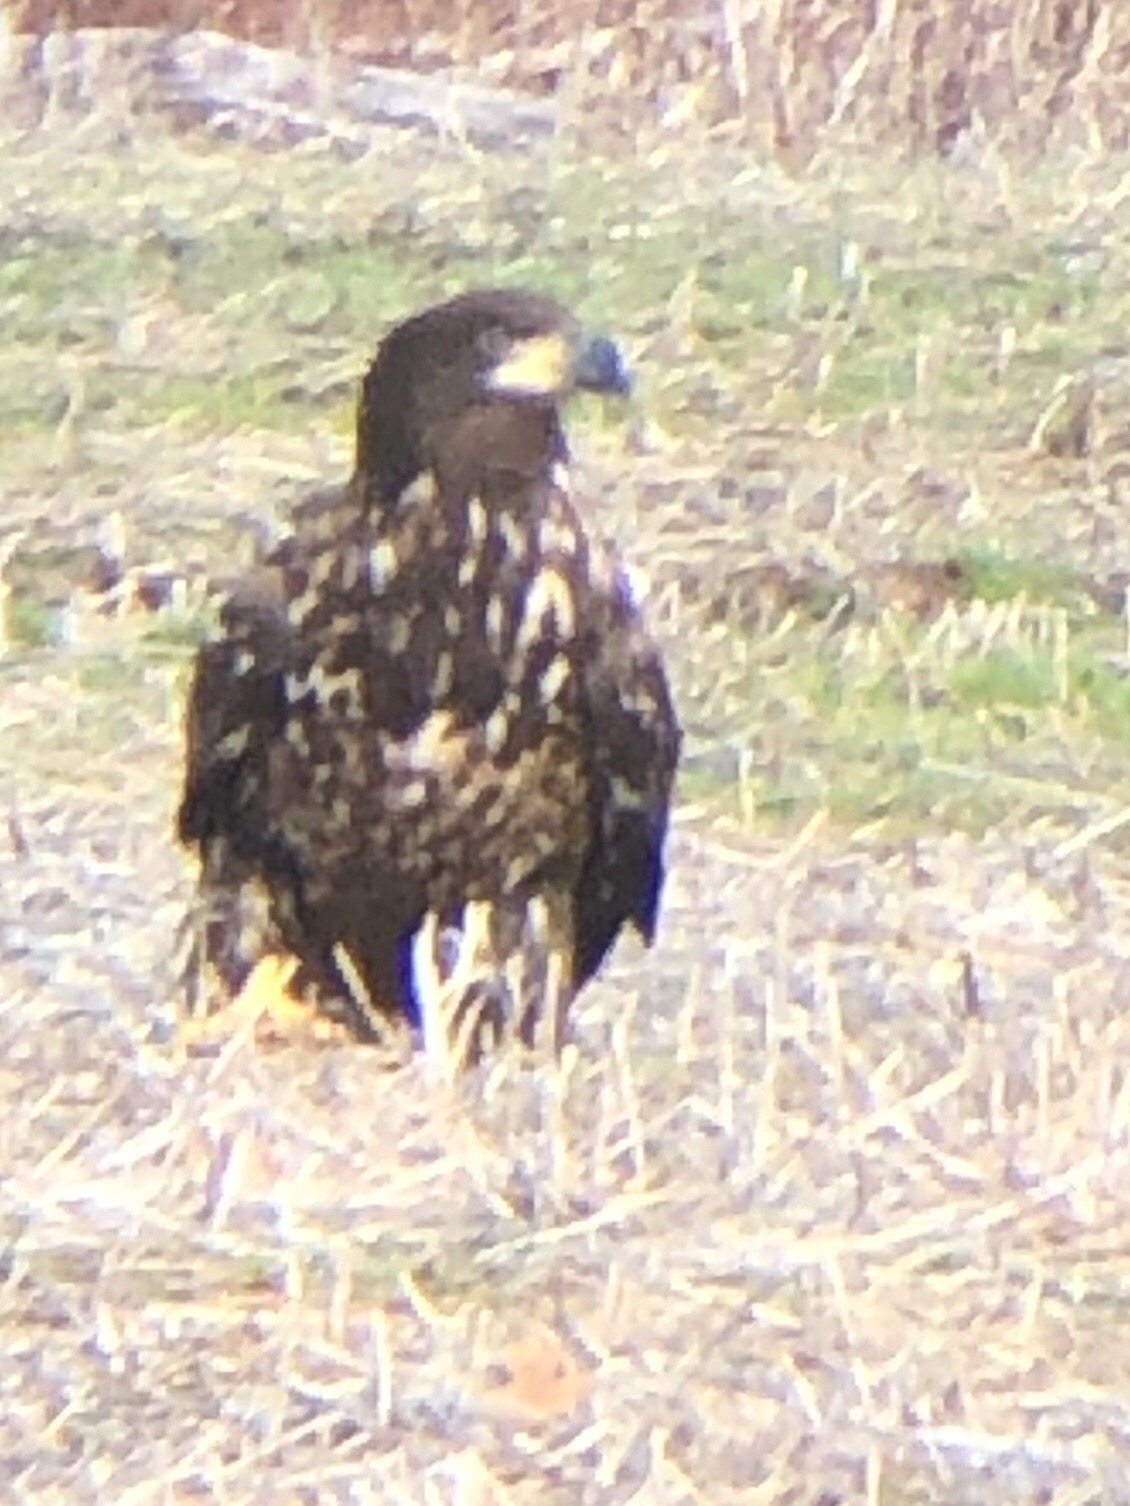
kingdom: Animalia
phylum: Chordata
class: Aves
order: Accipitriformes
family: Accipitridae
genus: Haliaeetus
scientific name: Haliaeetus leucocephalus
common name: Bald eagle
